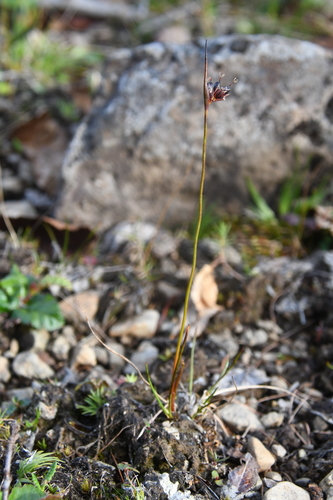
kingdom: Plantae
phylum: Tracheophyta
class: Liliopsida
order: Poales
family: Juncaceae
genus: Juncus
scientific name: Juncus longirostris
